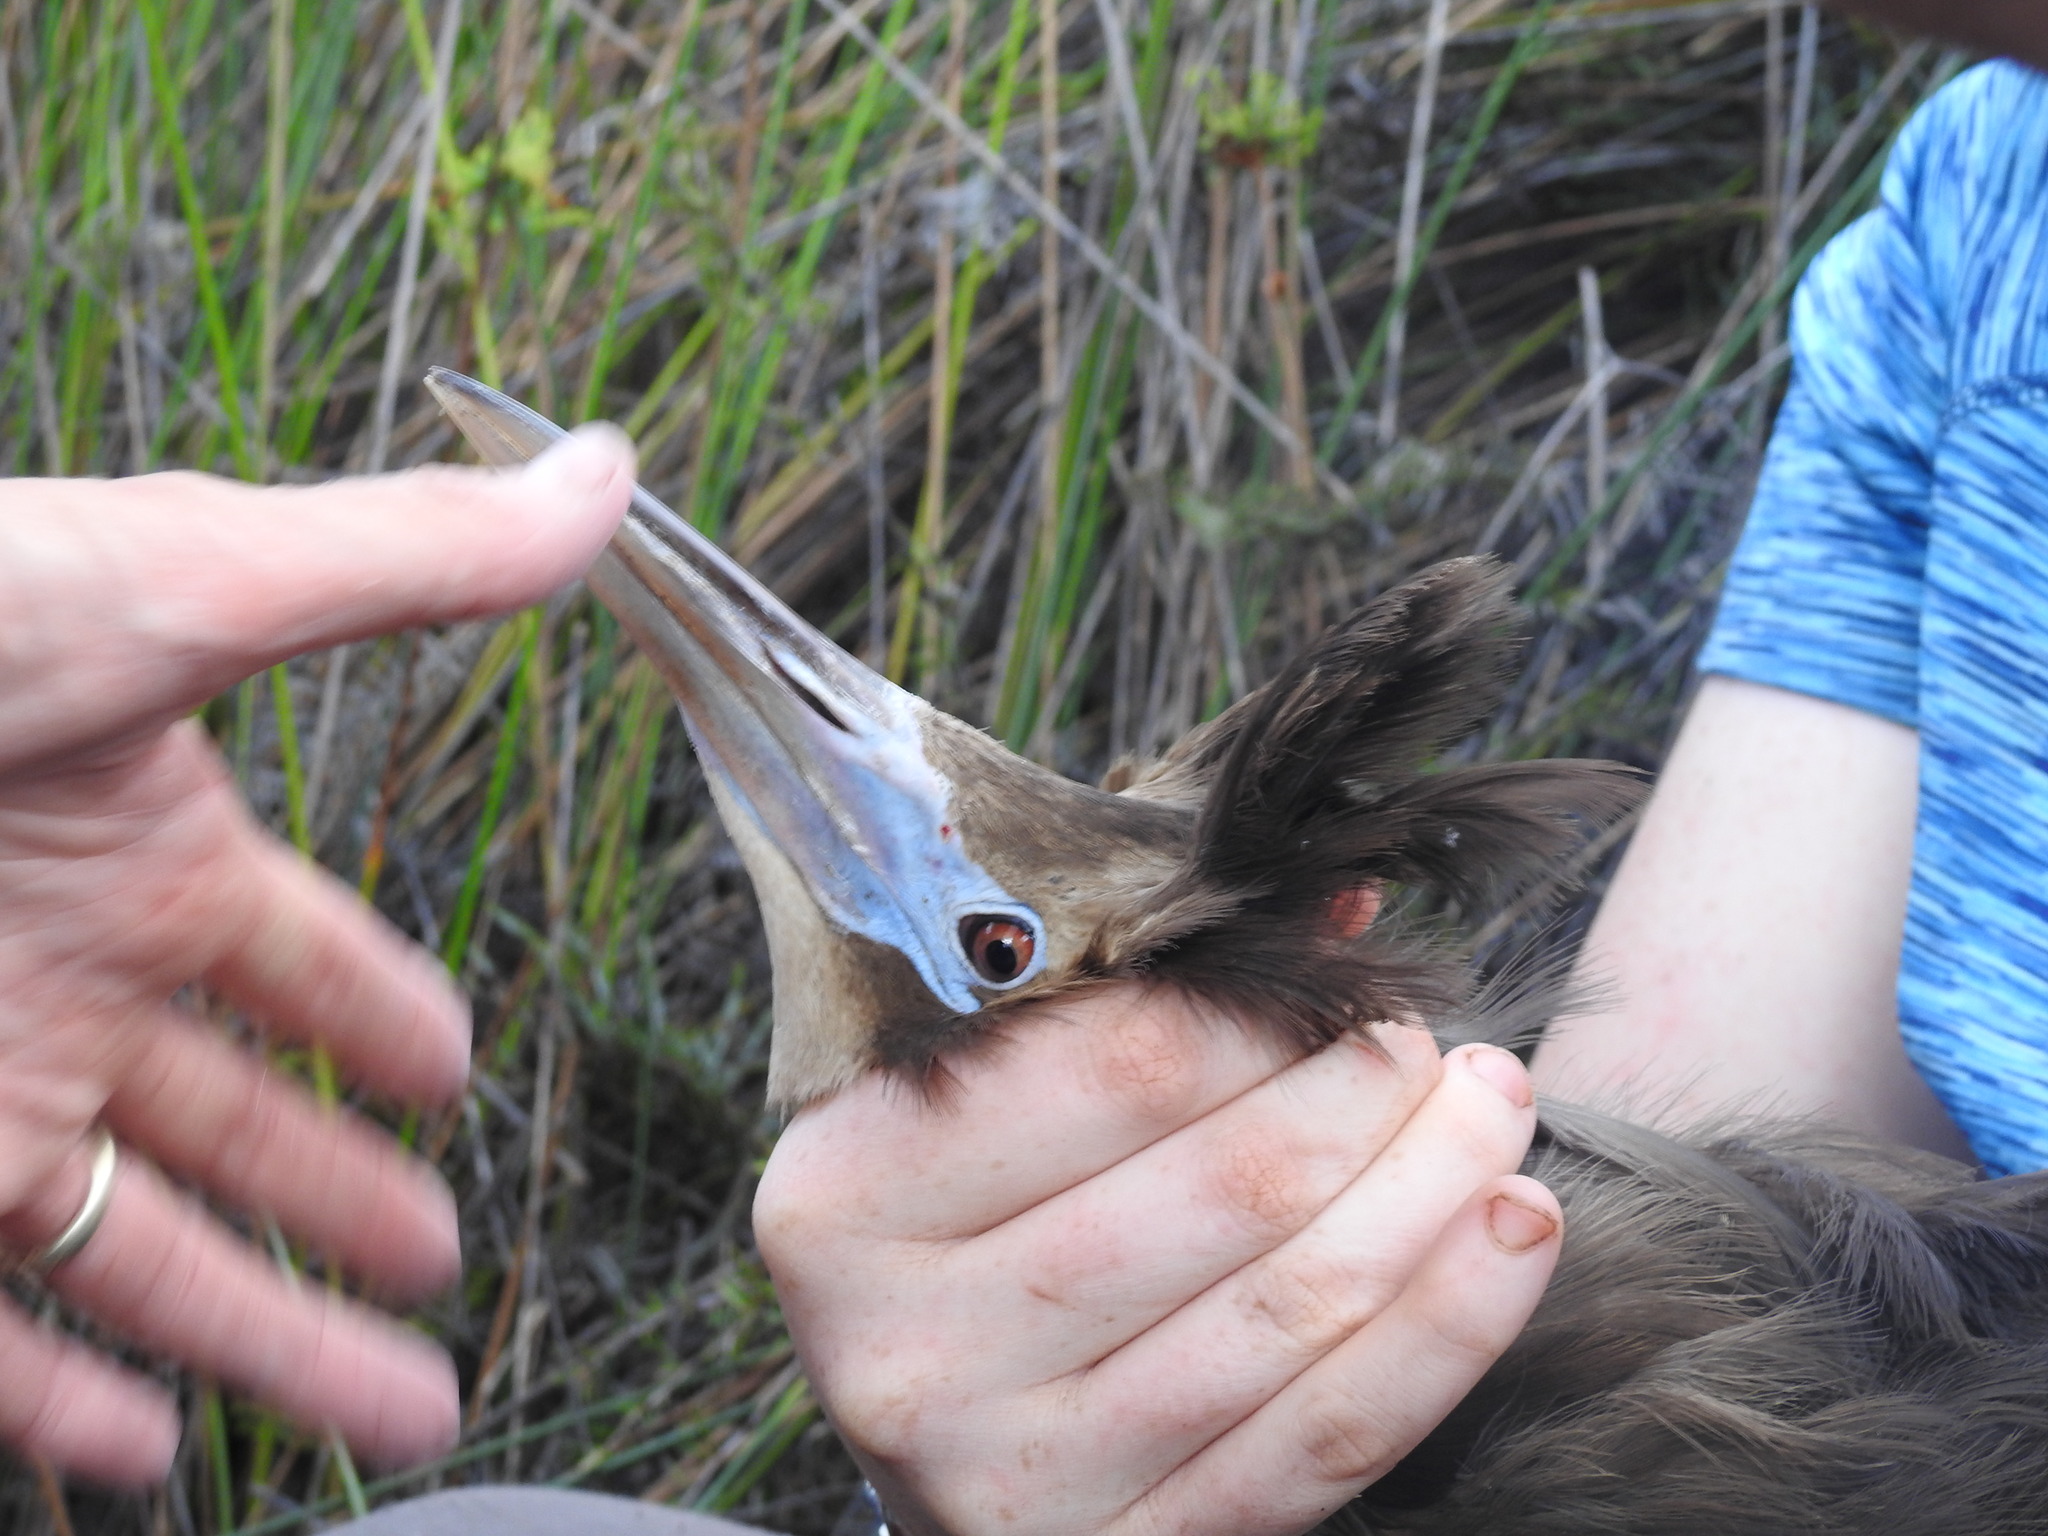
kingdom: Animalia
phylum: Chordata
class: Aves
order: Pelecaniformes
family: Ardeidae
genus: Botaurus
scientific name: Botaurus poiciloptilus
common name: Australasian bittern
